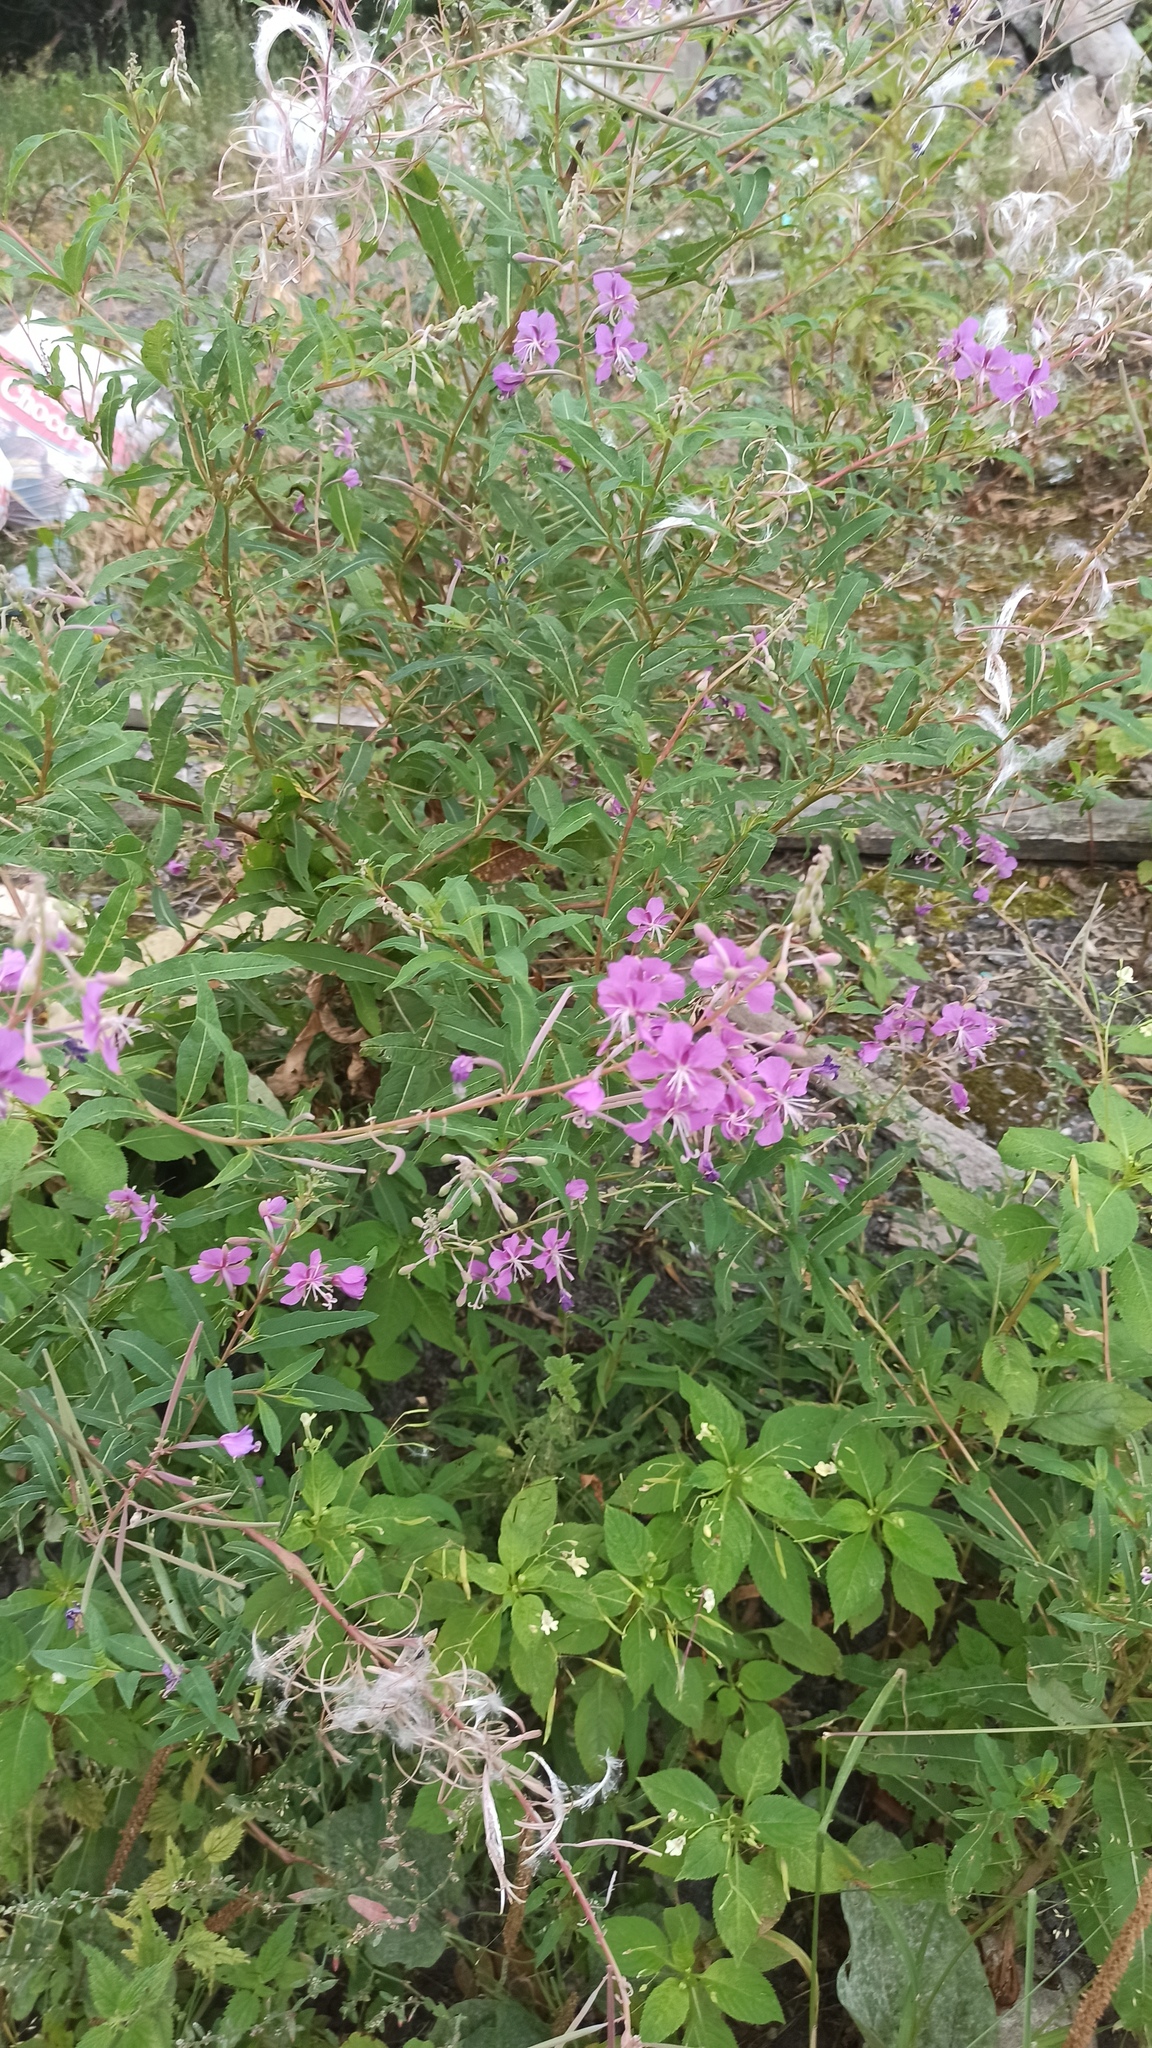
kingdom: Plantae
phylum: Tracheophyta
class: Magnoliopsida
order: Myrtales
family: Onagraceae
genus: Chamaenerion
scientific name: Chamaenerion angustifolium
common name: Fireweed
